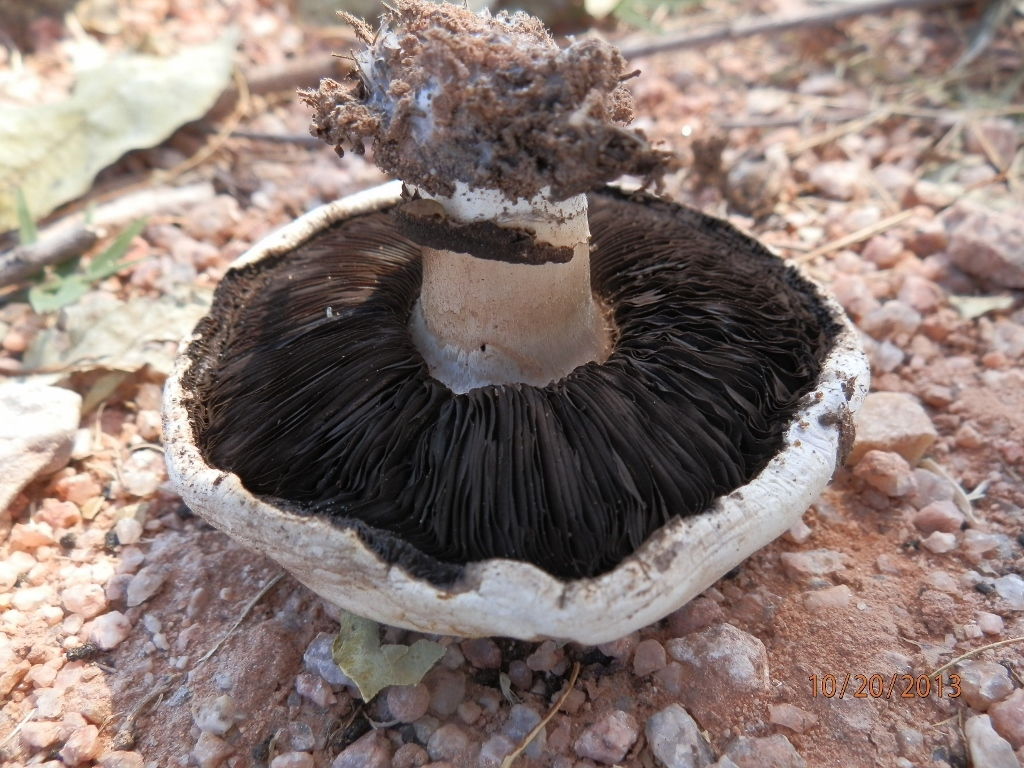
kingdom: Fungi
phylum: Basidiomycota
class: Agaricomycetes
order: Agaricales
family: Agaricaceae
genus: Agaricus
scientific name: Agaricus bitorquis
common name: Pavement mushroom
